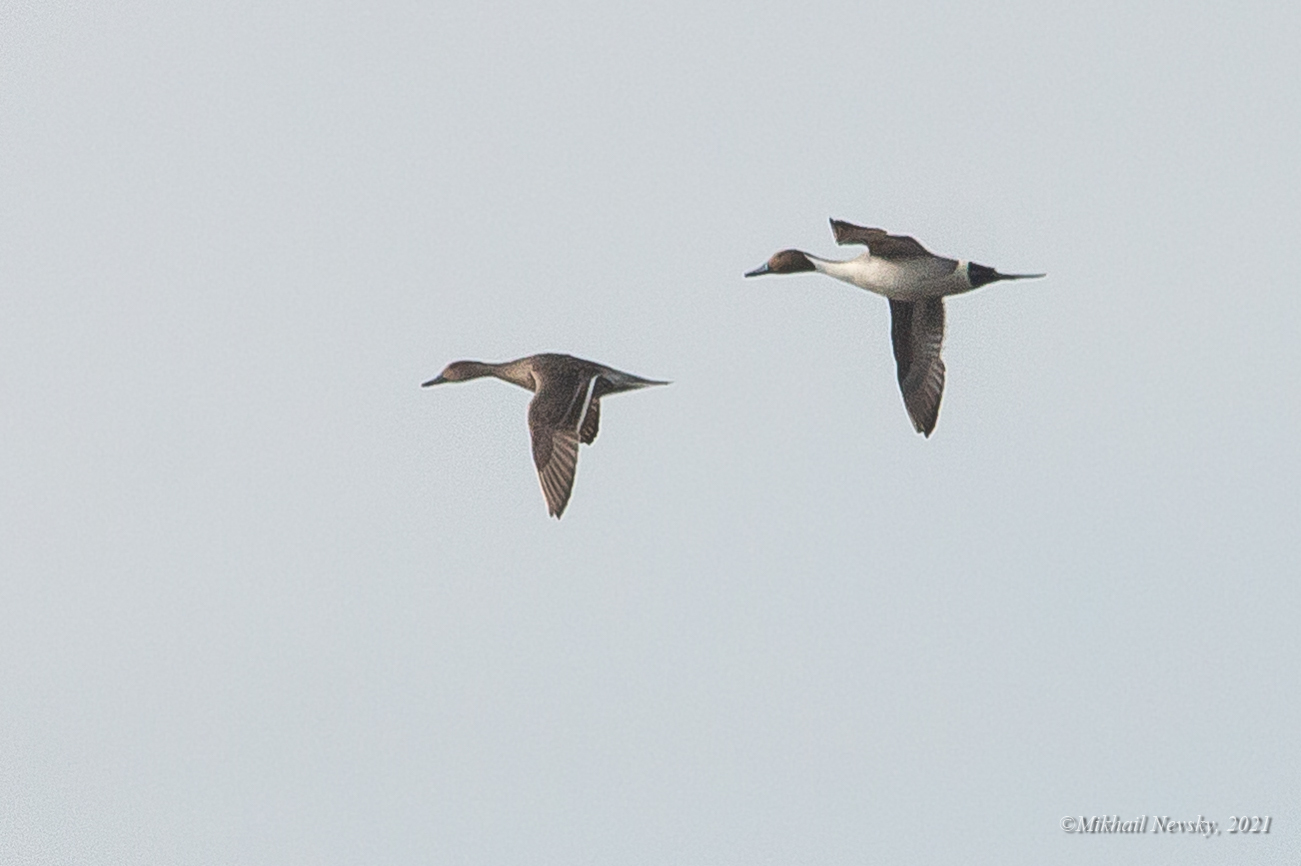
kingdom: Animalia
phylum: Chordata
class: Aves
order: Anseriformes
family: Anatidae
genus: Anas
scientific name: Anas acuta
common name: Northern pintail
